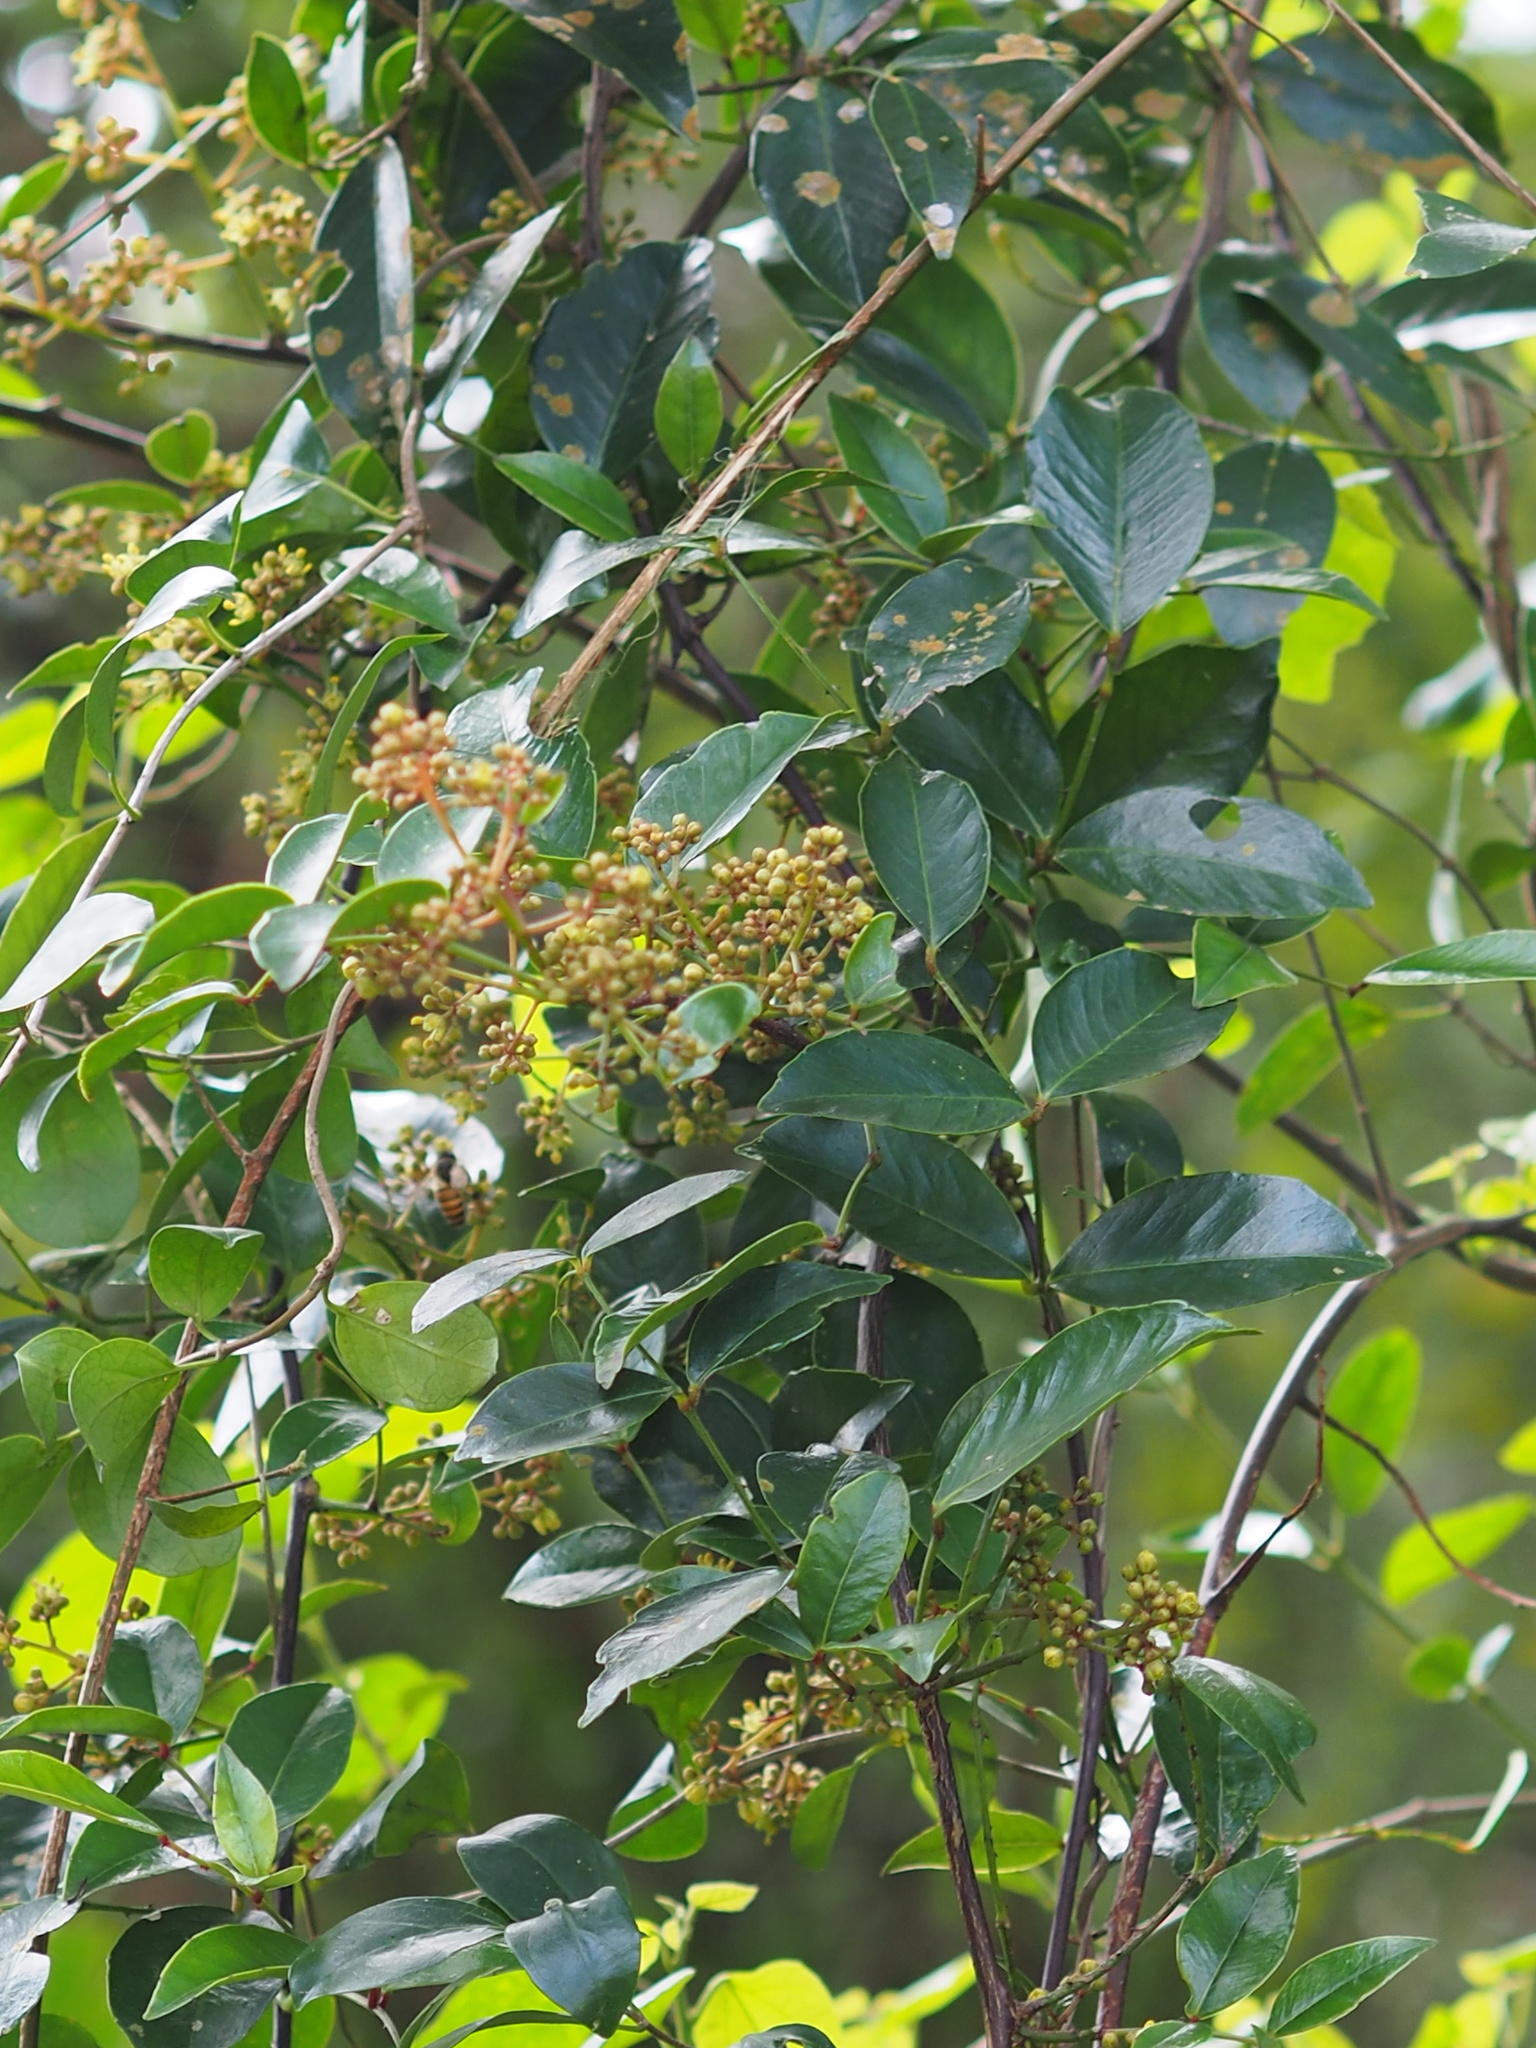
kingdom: Plantae
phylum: Tracheophyta
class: Magnoliopsida
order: Sapindales
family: Rutaceae
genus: Zanthoxylum
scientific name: Zanthoxylum asiaticum
